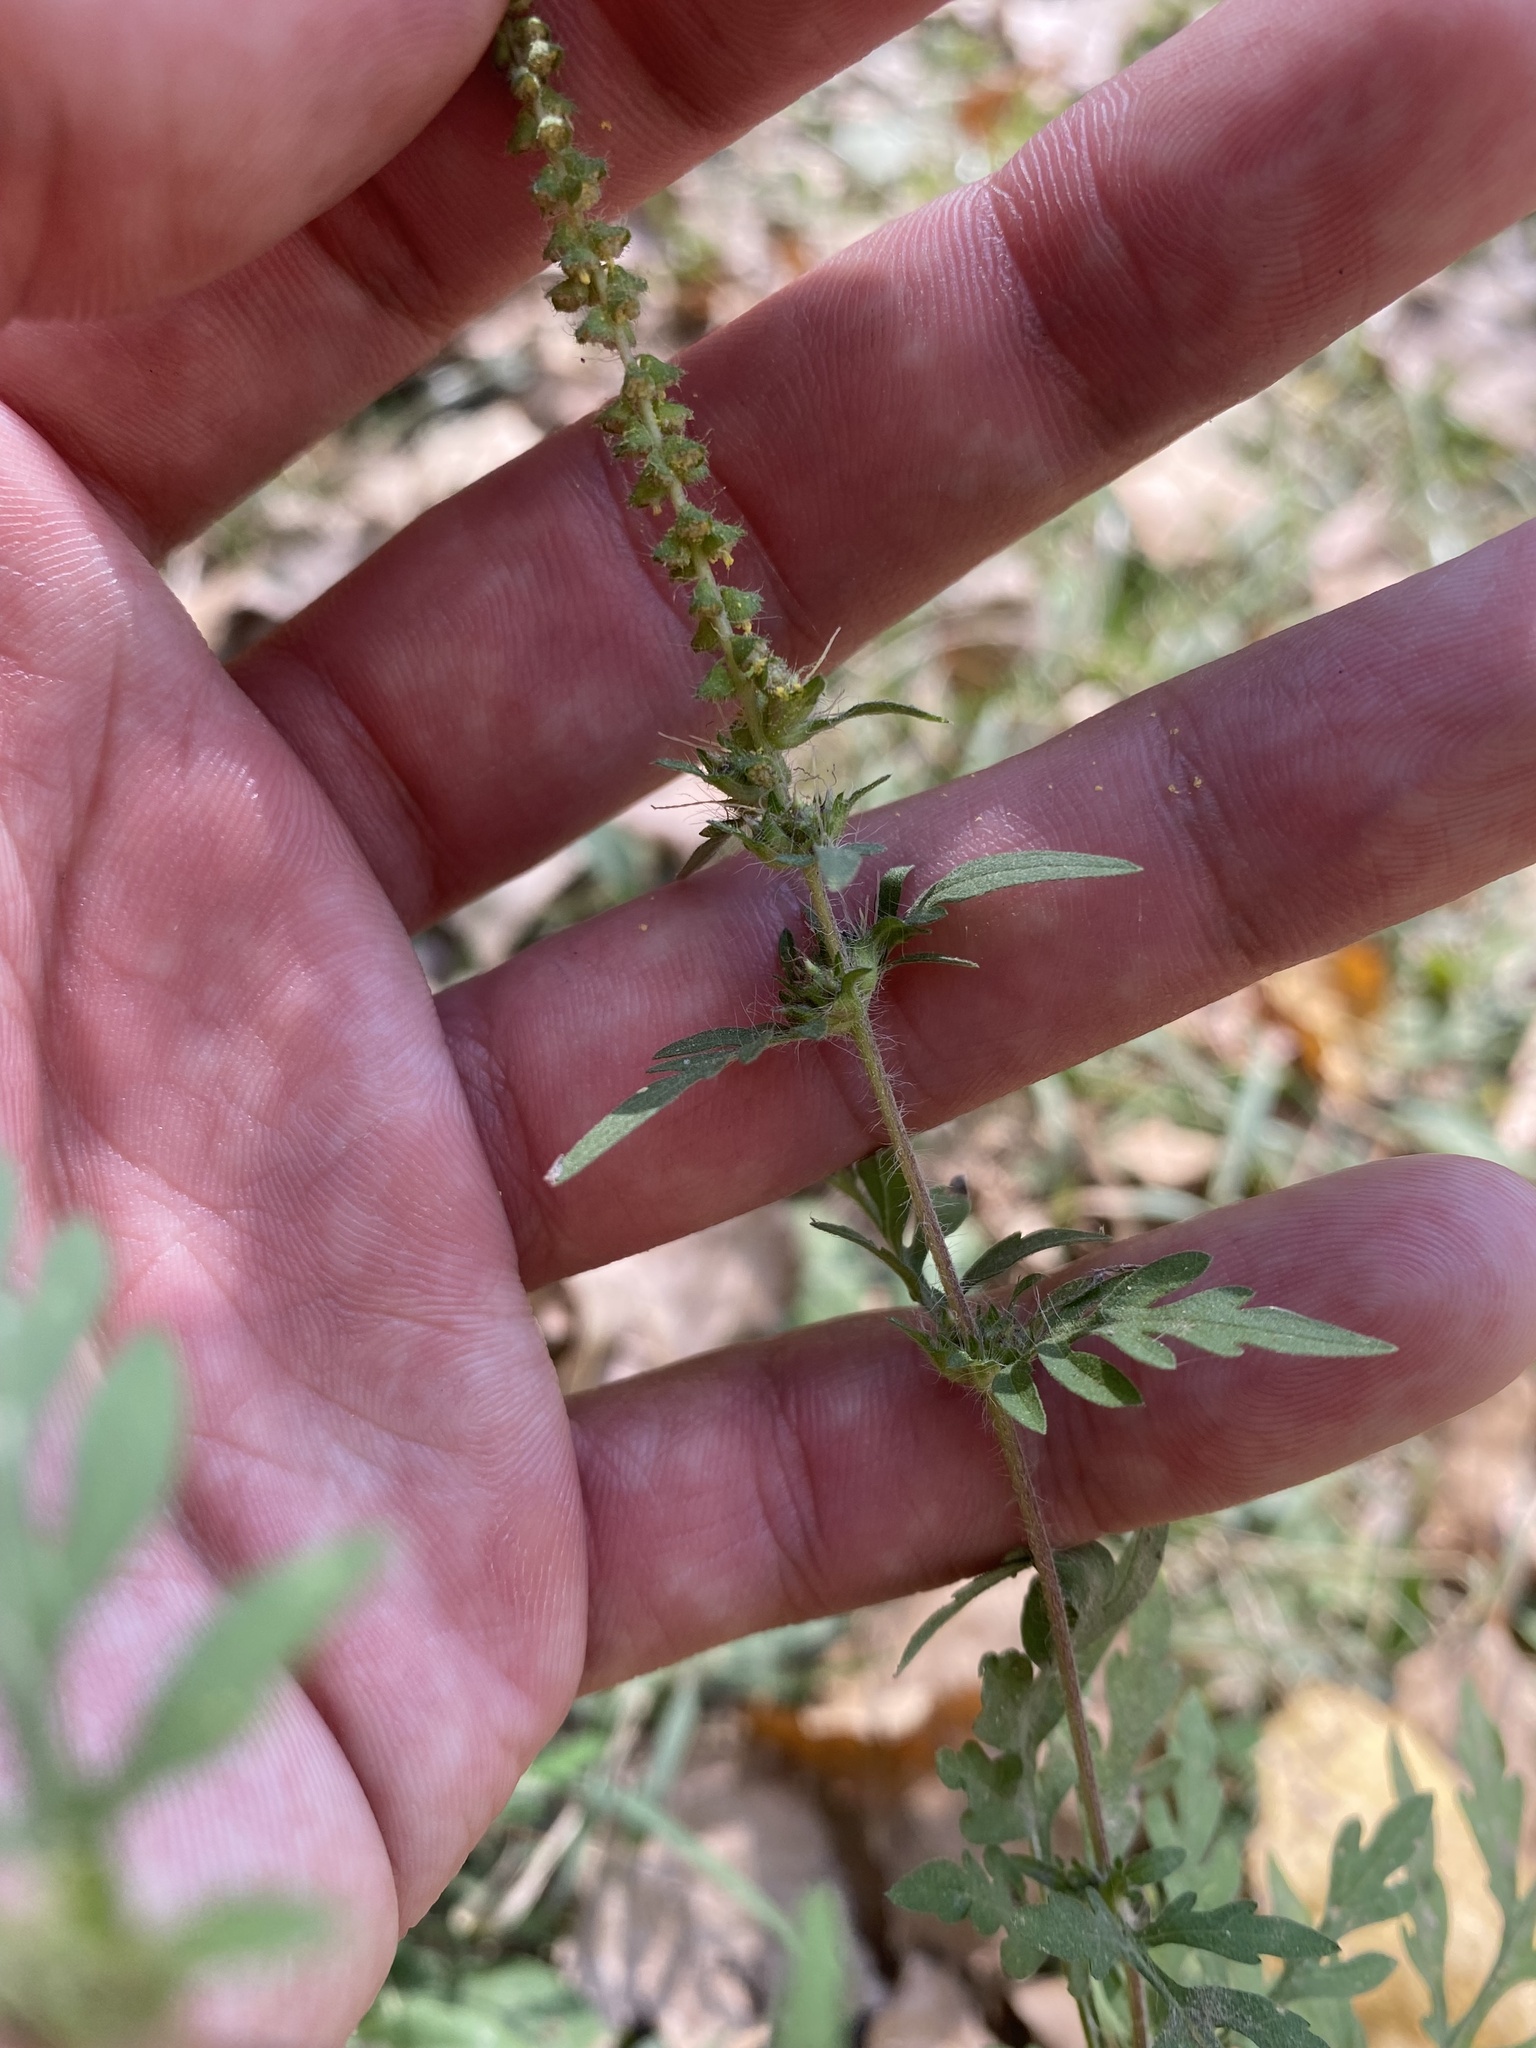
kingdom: Plantae
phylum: Tracheophyta
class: Magnoliopsida
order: Asterales
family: Asteraceae
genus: Ambrosia
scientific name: Ambrosia artemisiifolia
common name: Annual ragweed
